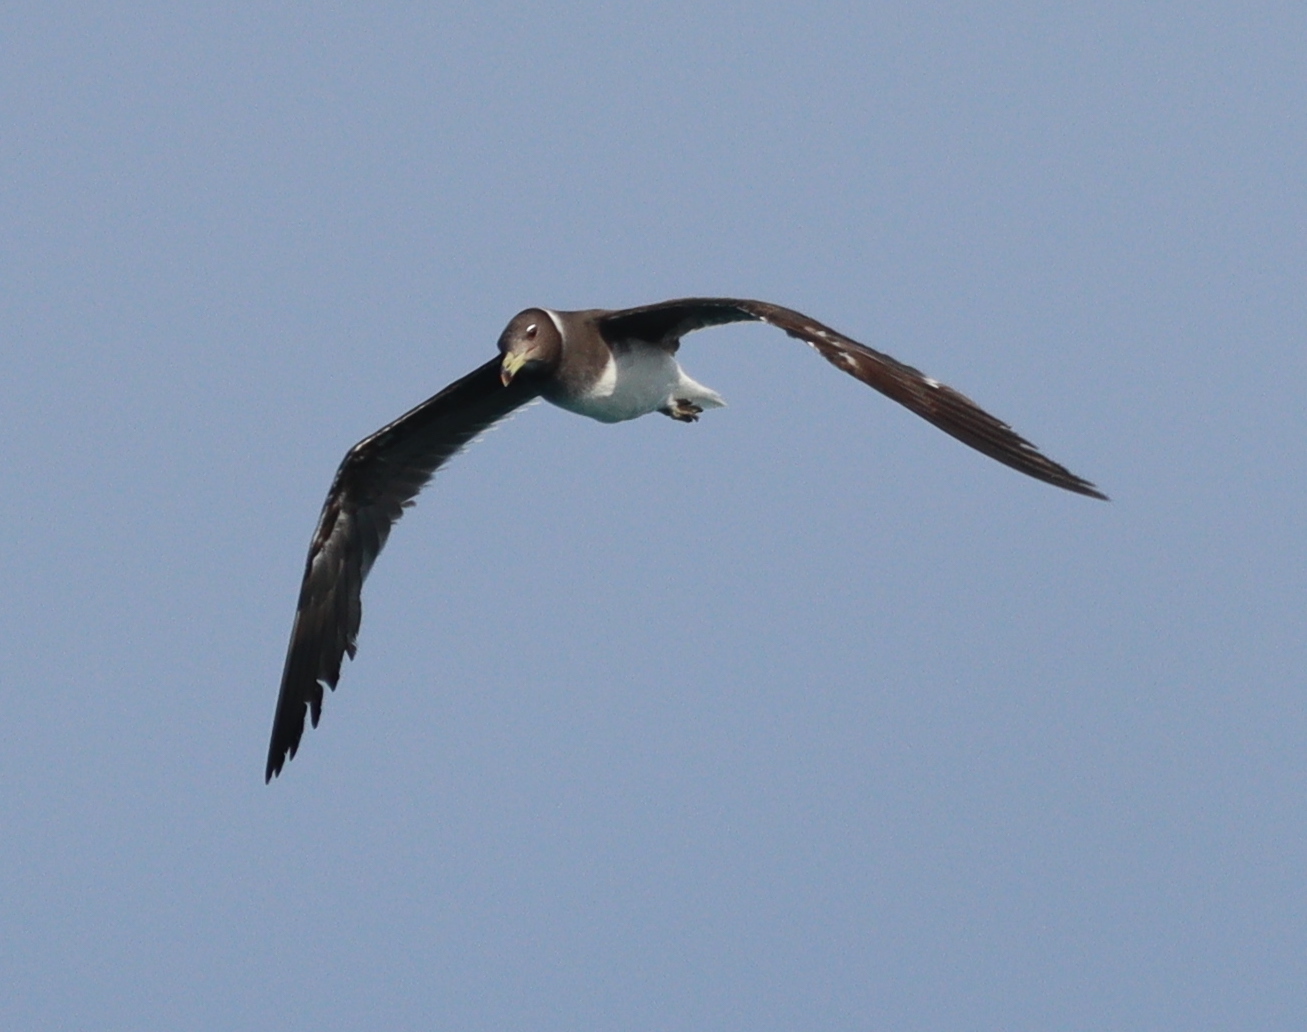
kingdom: Animalia
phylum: Chordata
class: Aves
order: Charadriiformes
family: Laridae
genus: Ichthyaetus
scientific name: Ichthyaetus hemprichii
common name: Sooty gull
